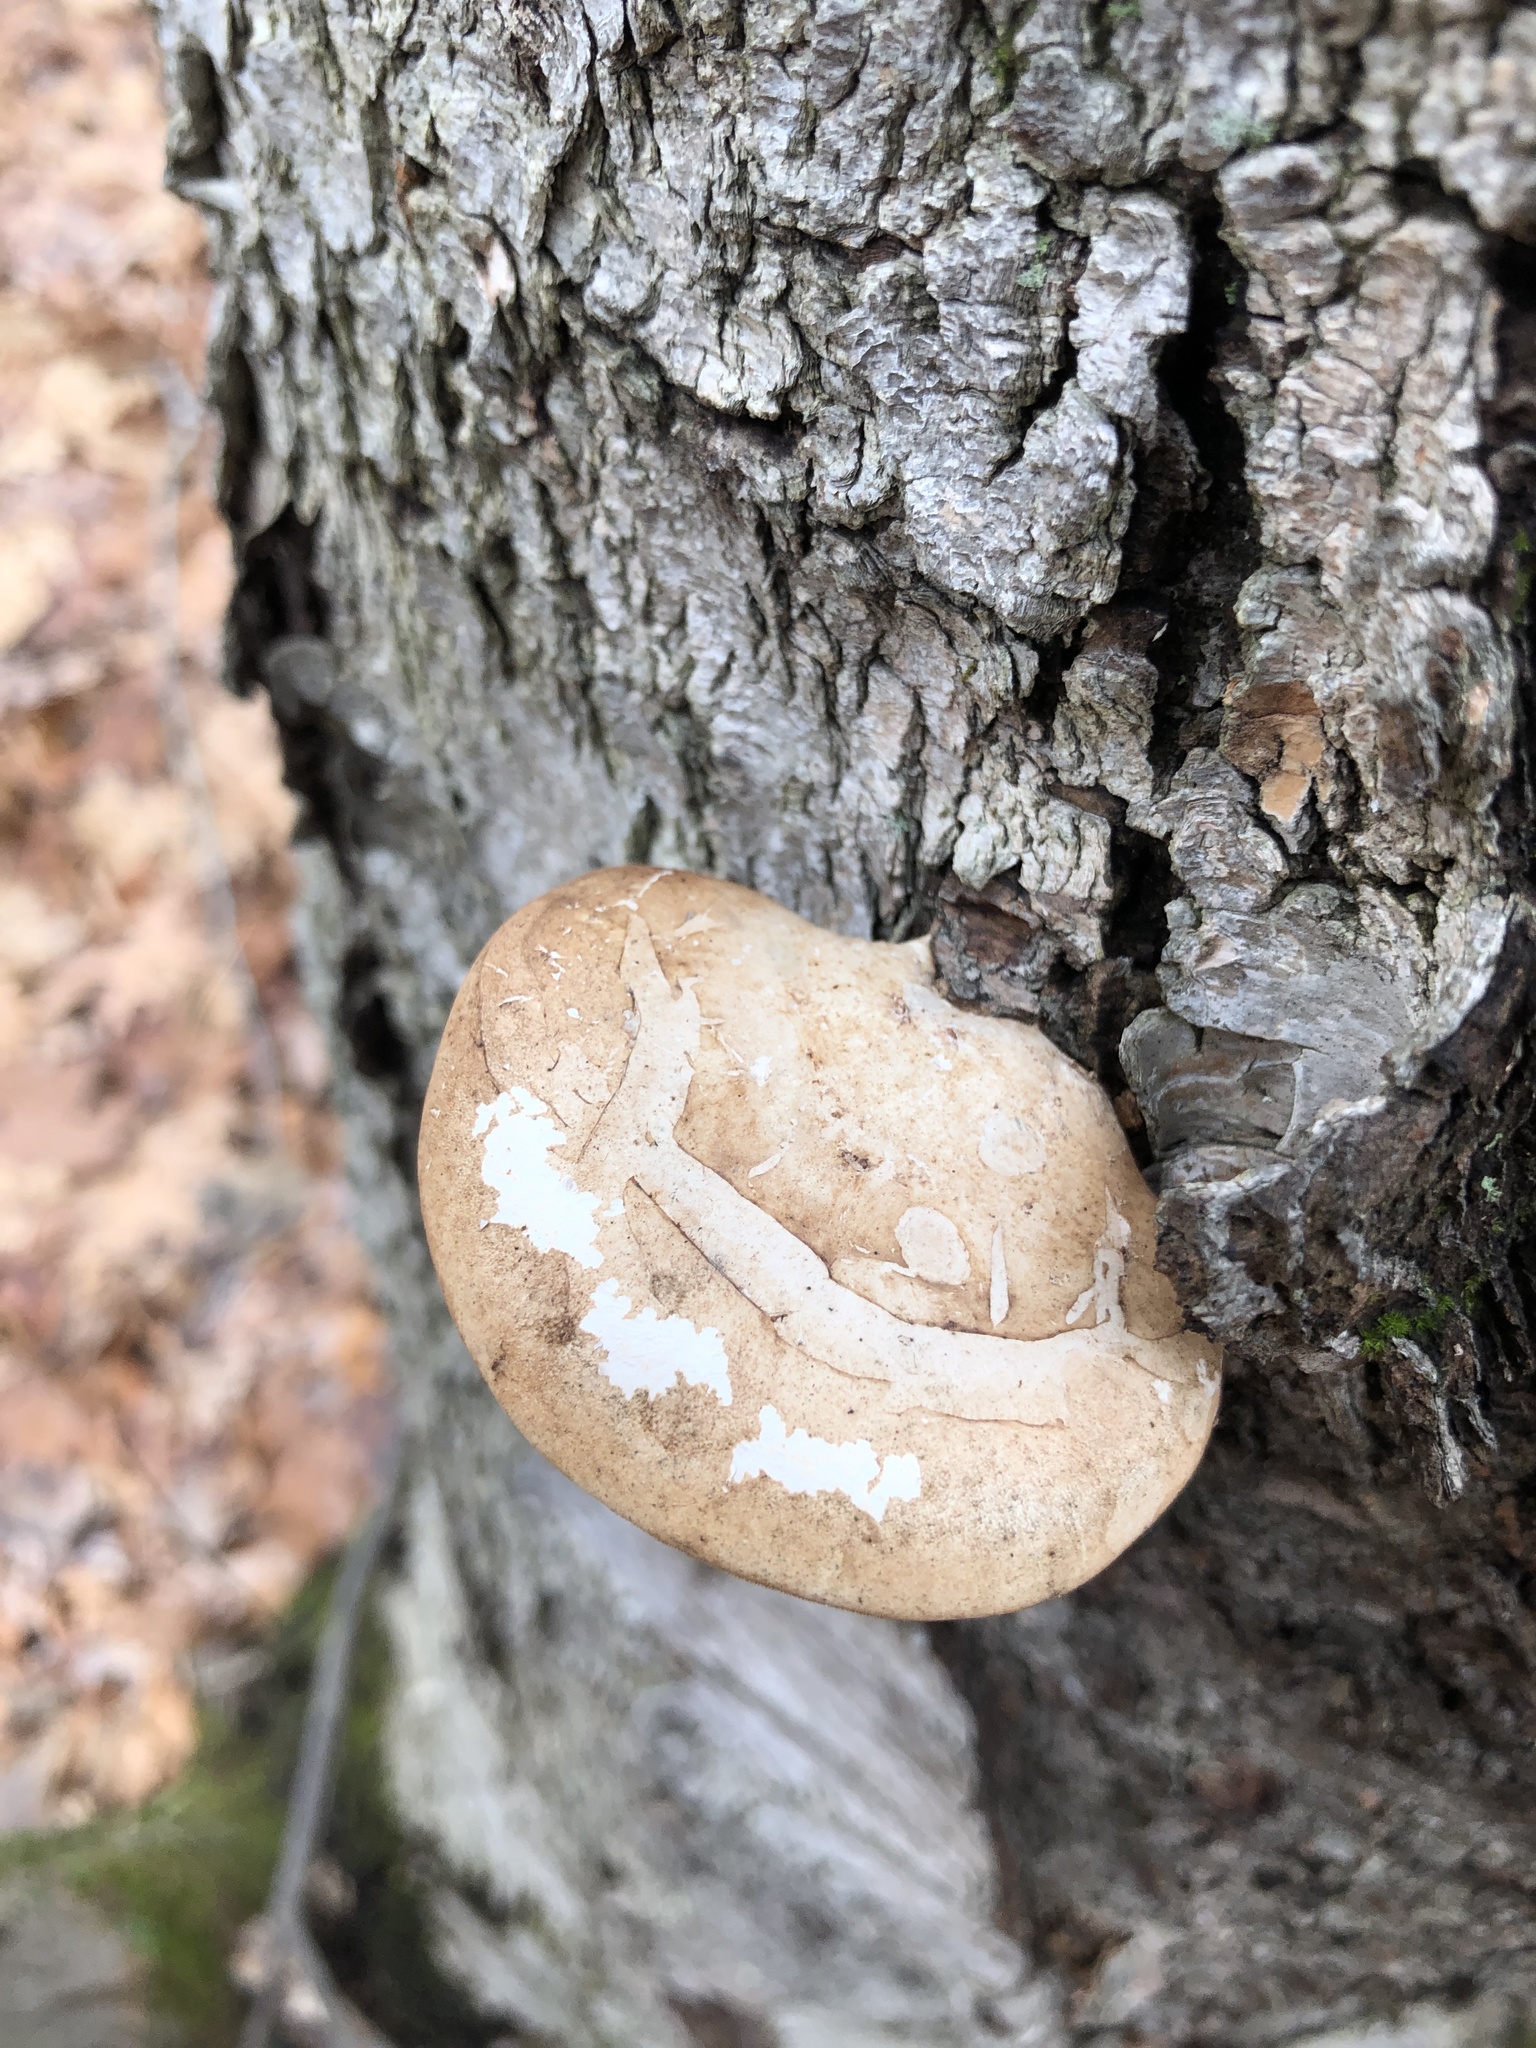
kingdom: Fungi
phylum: Basidiomycota
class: Agaricomycetes
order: Polyporales
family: Fomitopsidaceae
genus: Fomitopsis
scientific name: Fomitopsis betulina
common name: Birch polypore
